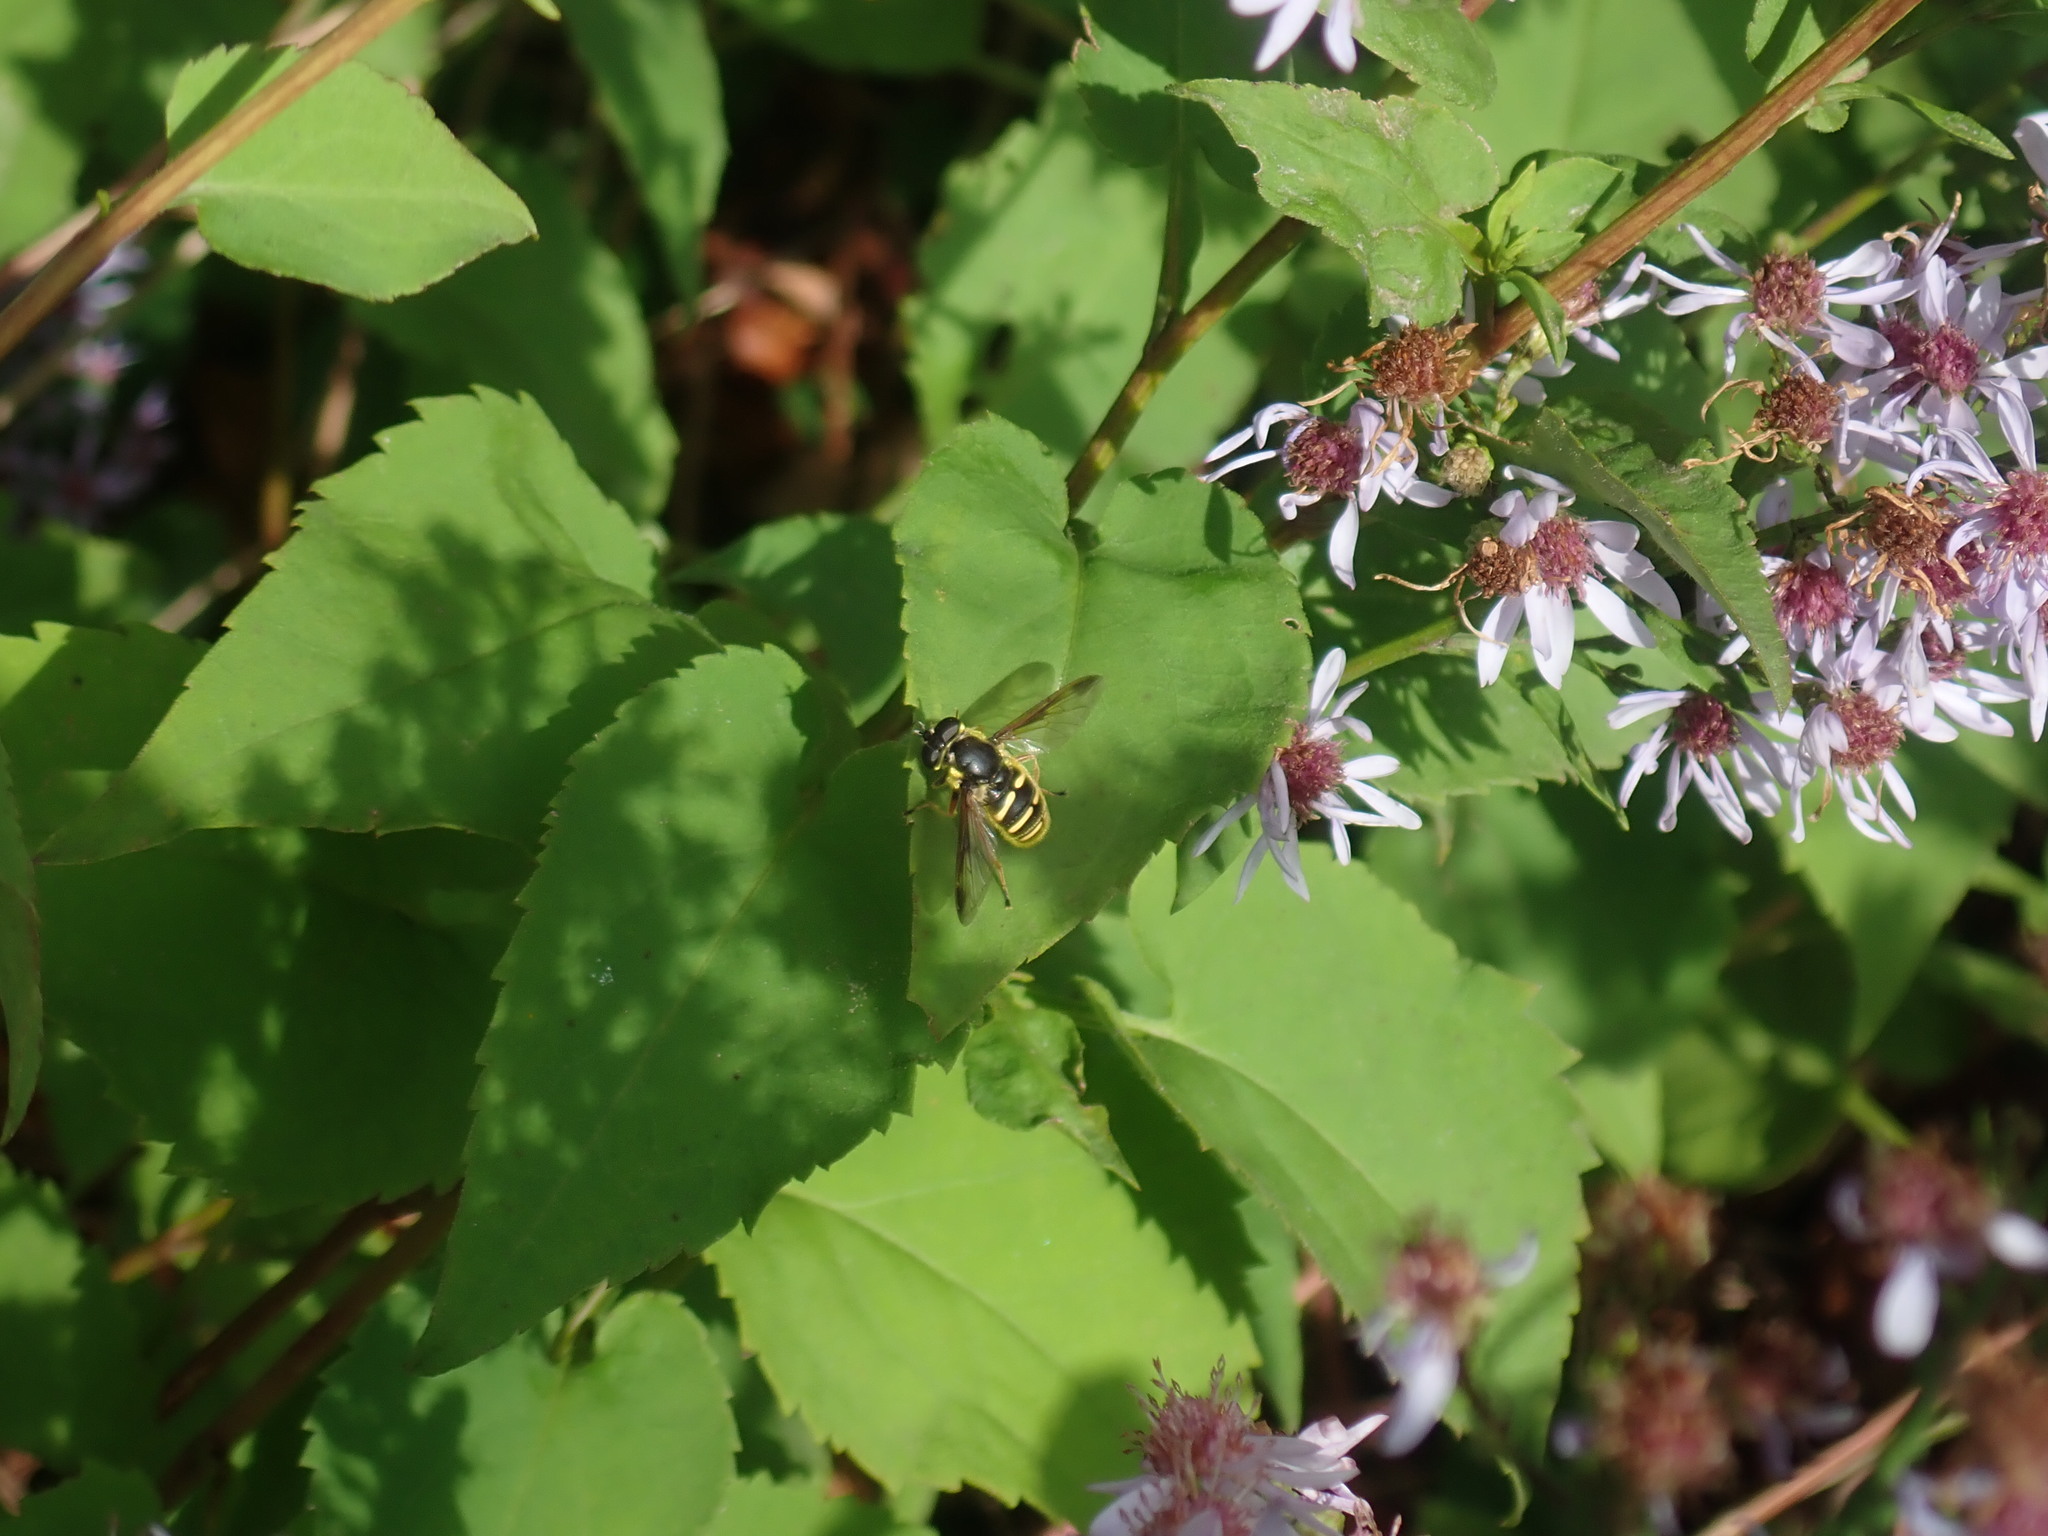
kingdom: Animalia
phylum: Arthropoda
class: Insecta
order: Diptera
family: Syrphidae
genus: Sericomyia
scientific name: Sericomyia chrysotoxoides
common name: Oblique-banded pond fly
